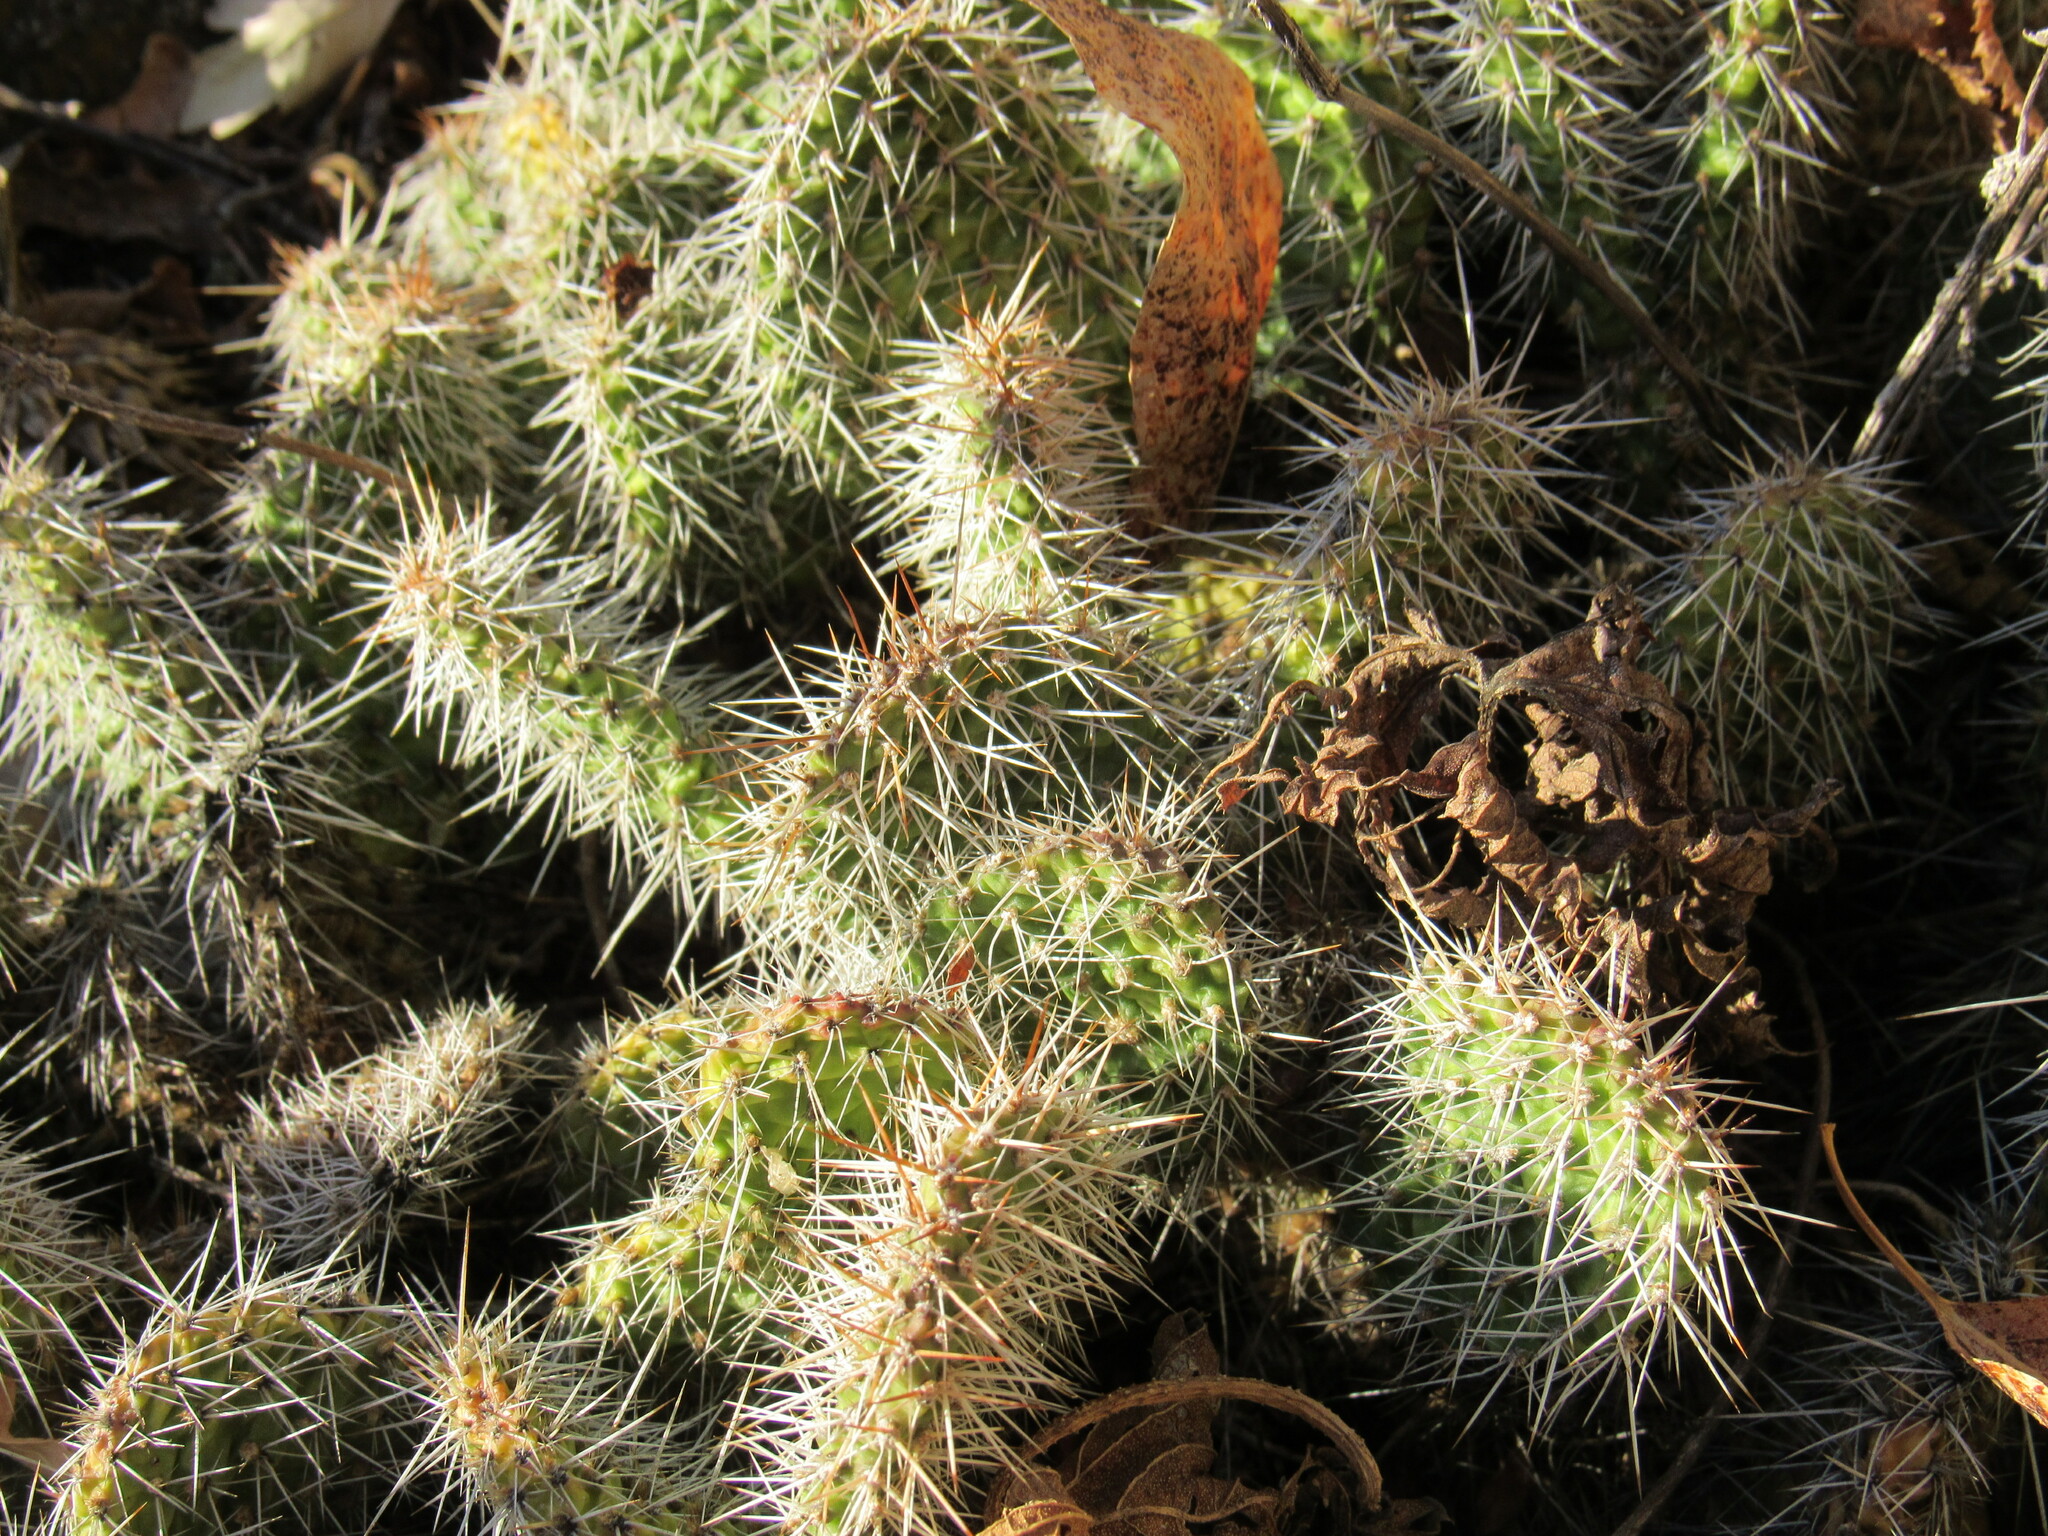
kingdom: Plantae
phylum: Tracheophyta
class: Magnoliopsida
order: Caryophyllales
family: Cactaceae
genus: Opuntia
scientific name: Opuntia polyacantha
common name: Plains prickly-pear
